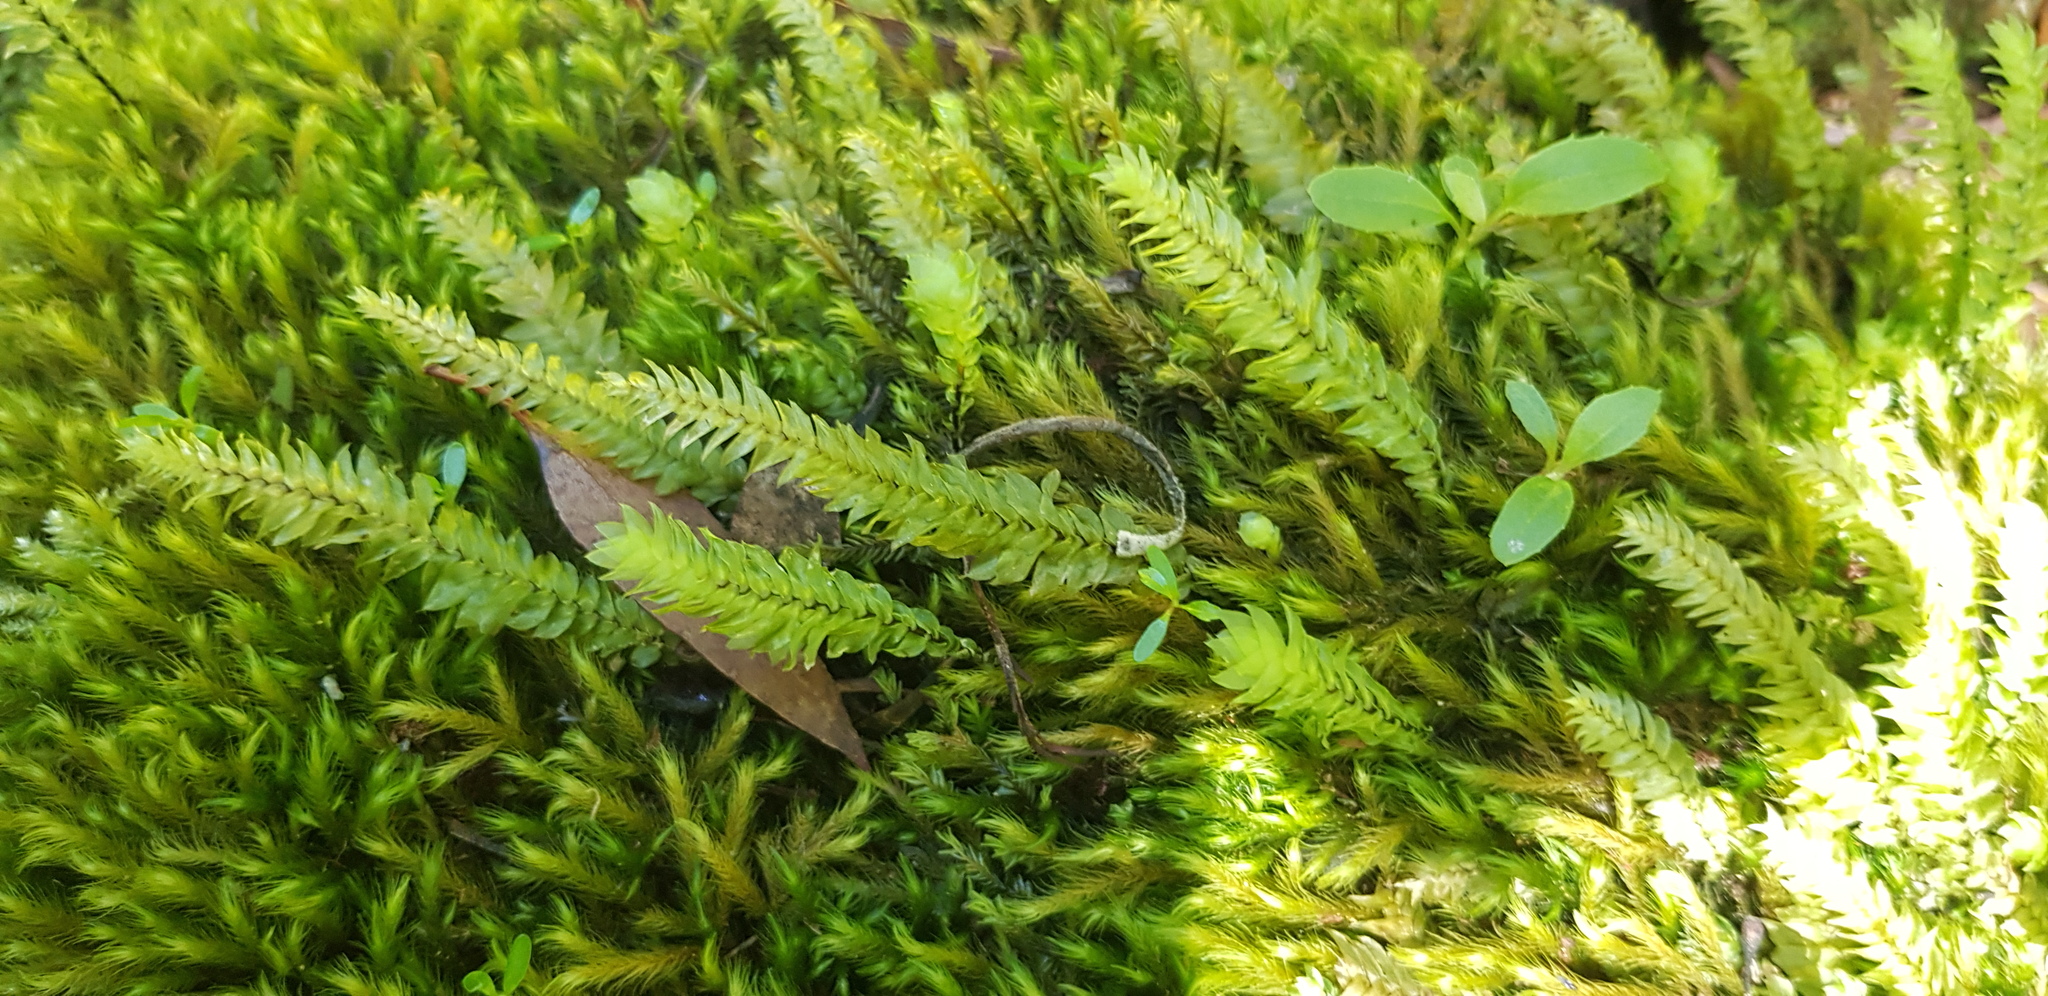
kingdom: Plantae
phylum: Bryophyta
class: Bryopsida
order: Hypopterygiales
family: Hypopterygiaceae
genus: Cyathophorum
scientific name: Cyathophorum bulbosum
